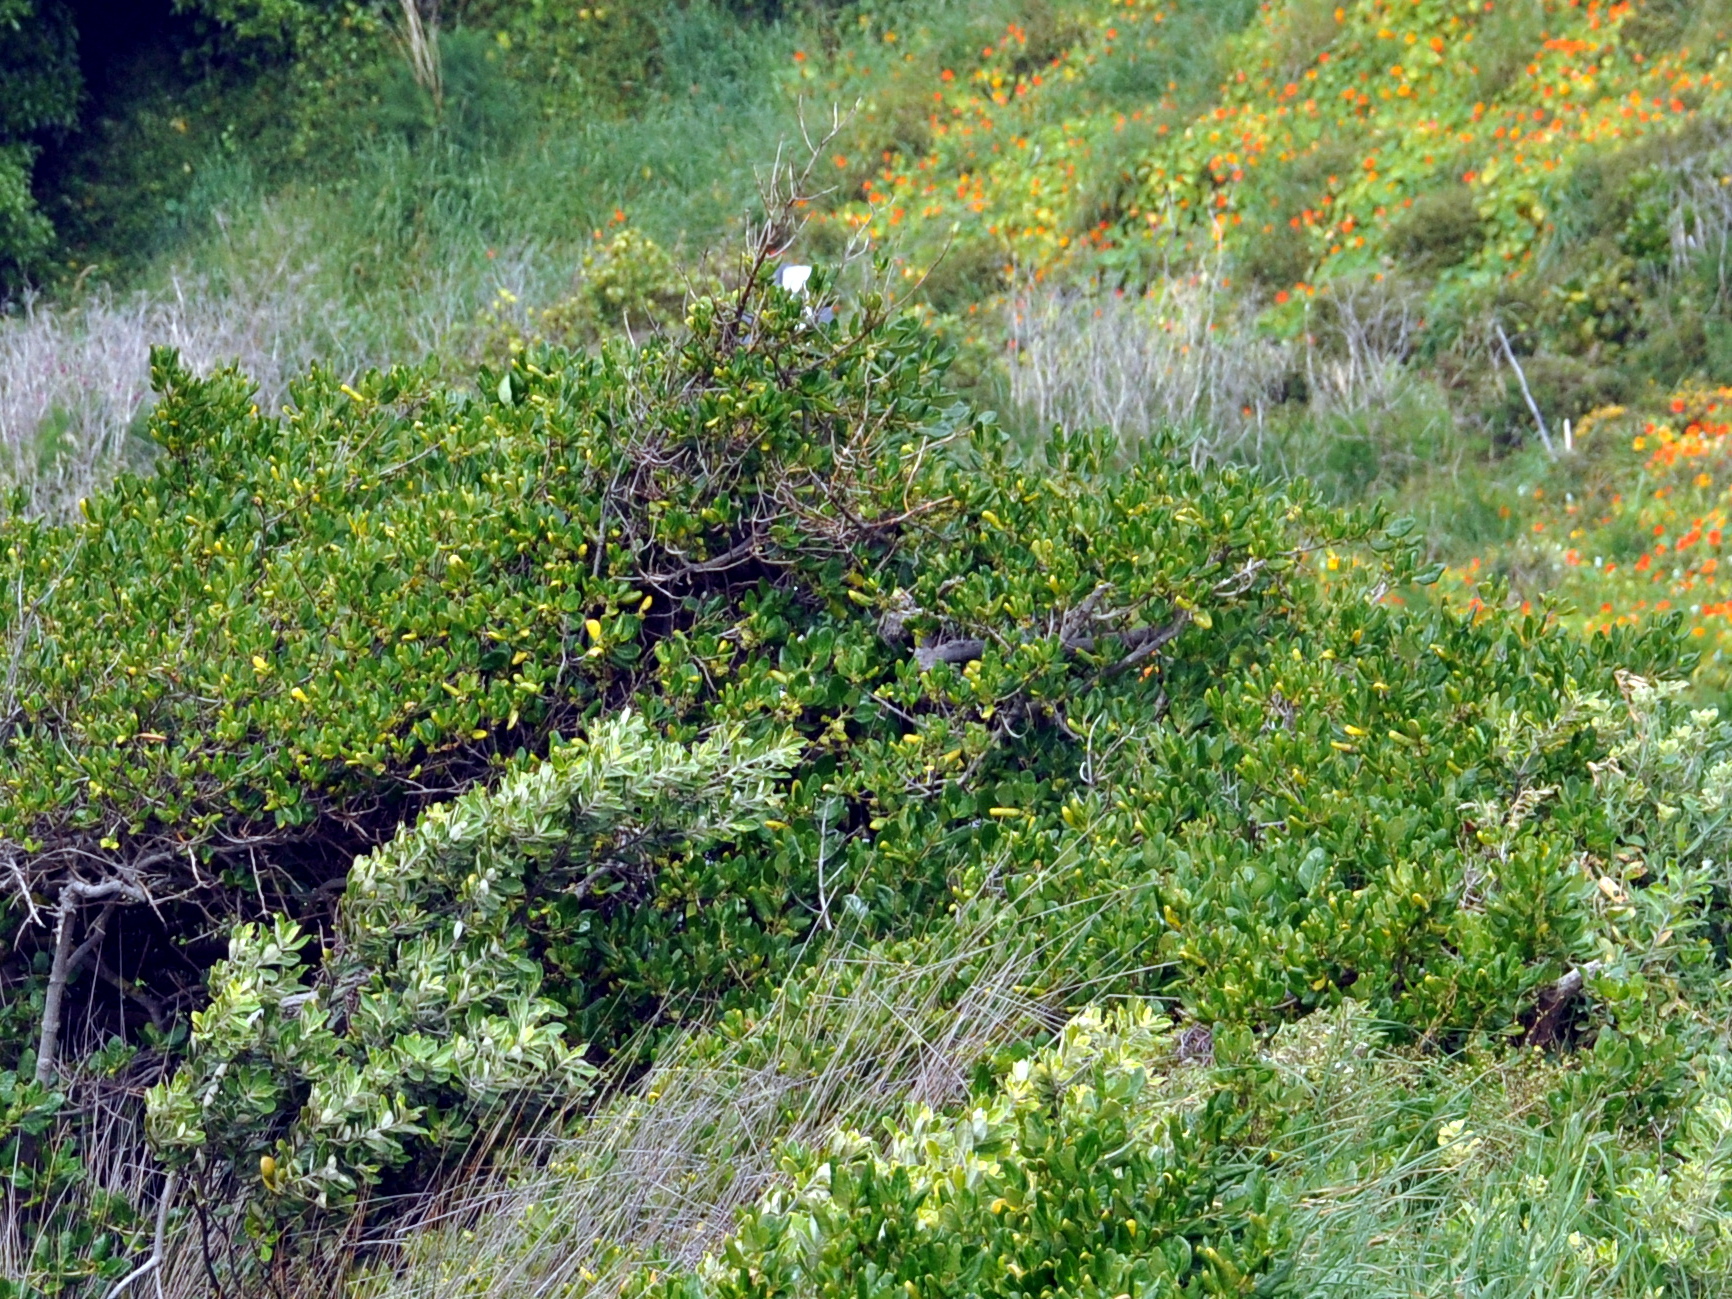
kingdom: Plantae
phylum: Tracheophyta
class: Magnoliopsida
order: Gentianales
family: Rubiaceae
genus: Coprosma
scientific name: Coprosma repens
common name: Tree bedstraw
